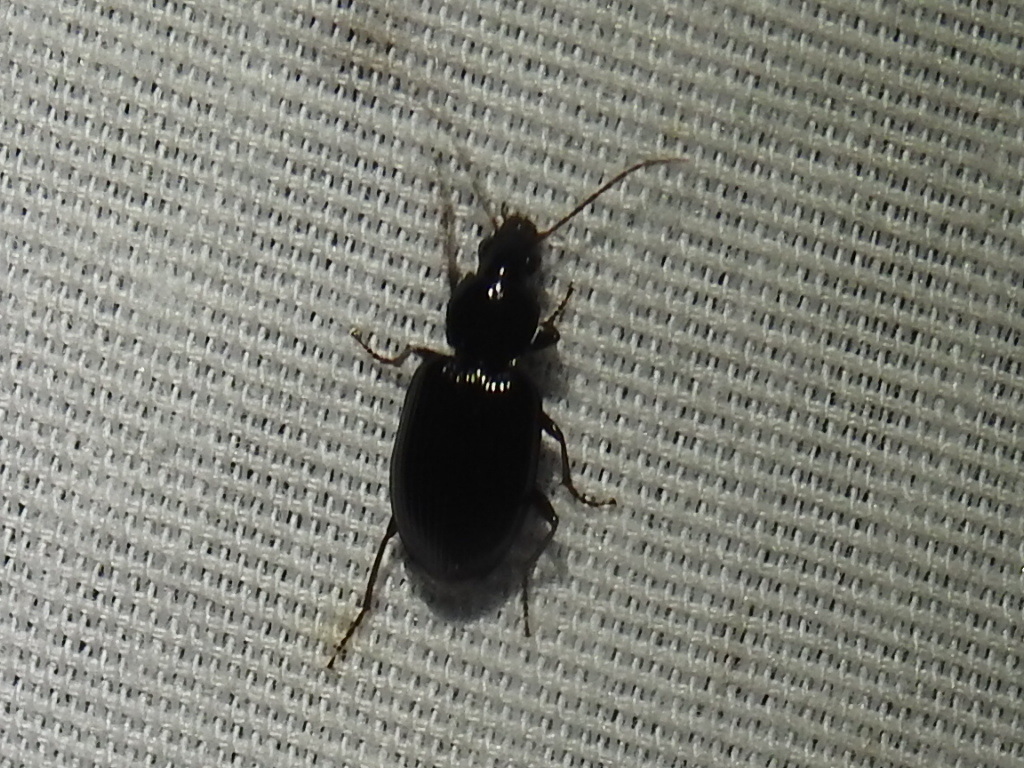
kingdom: Animalia
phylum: Arthropoda
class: Insecta
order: Coleoptera
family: Carabidae
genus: Agonum
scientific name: Agonum punctiforme
